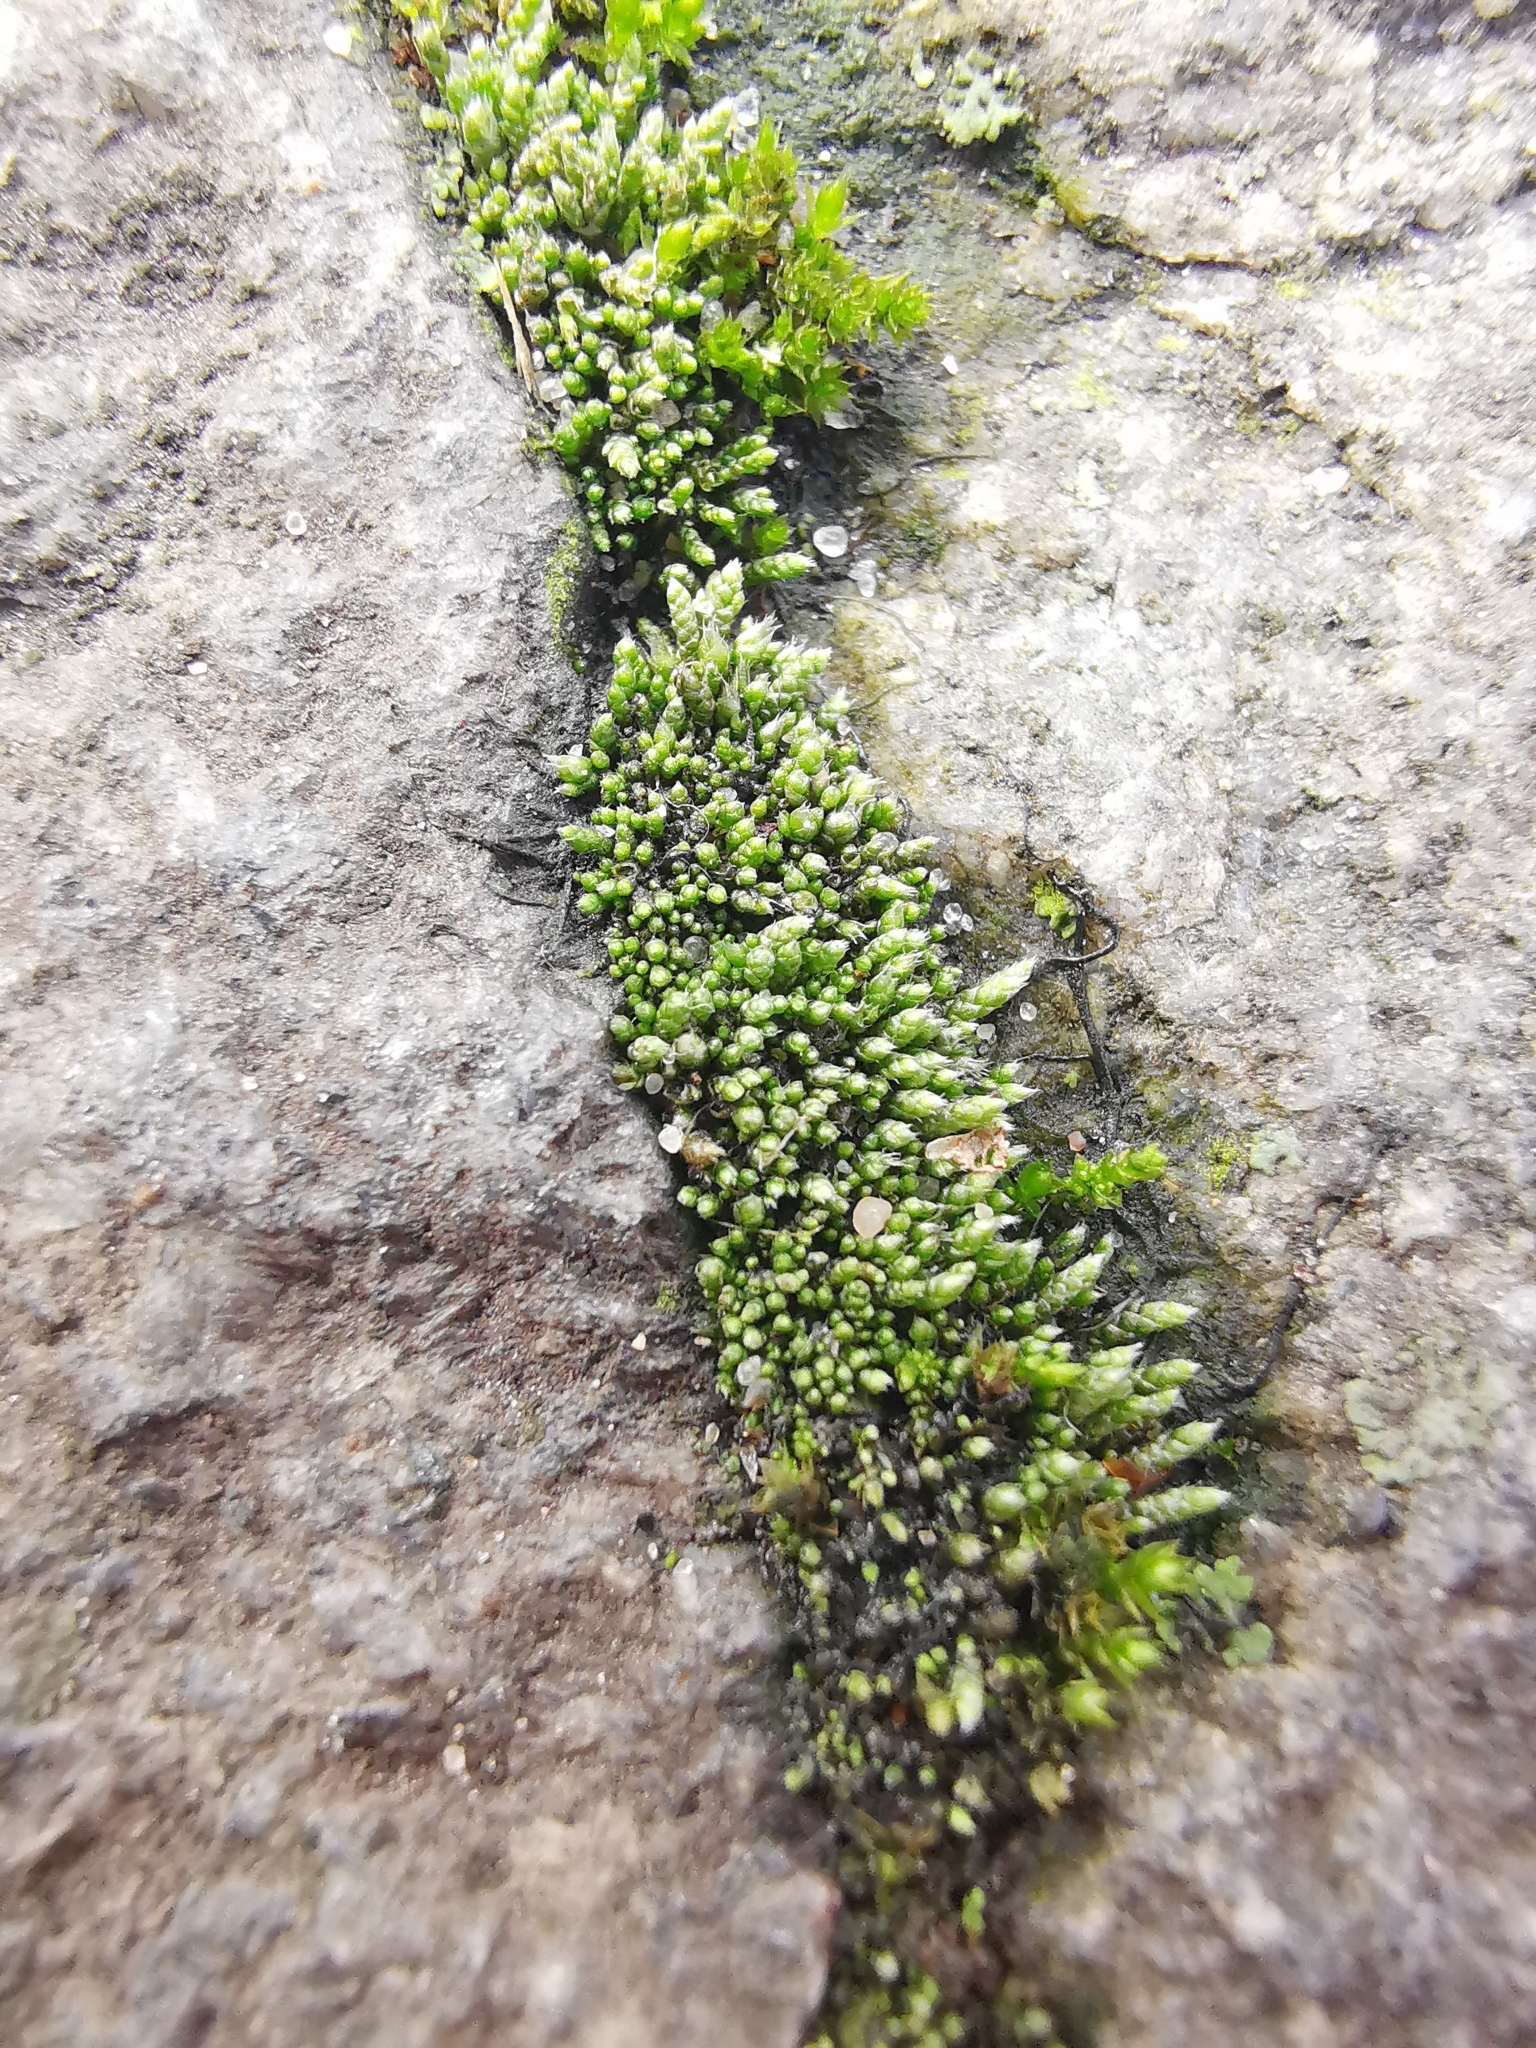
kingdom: Plantae
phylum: Bryophyta
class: Bryopsida
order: Bryales
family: Bryaceae
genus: Bryum
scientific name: Bryum argenteum
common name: Silver-moss
